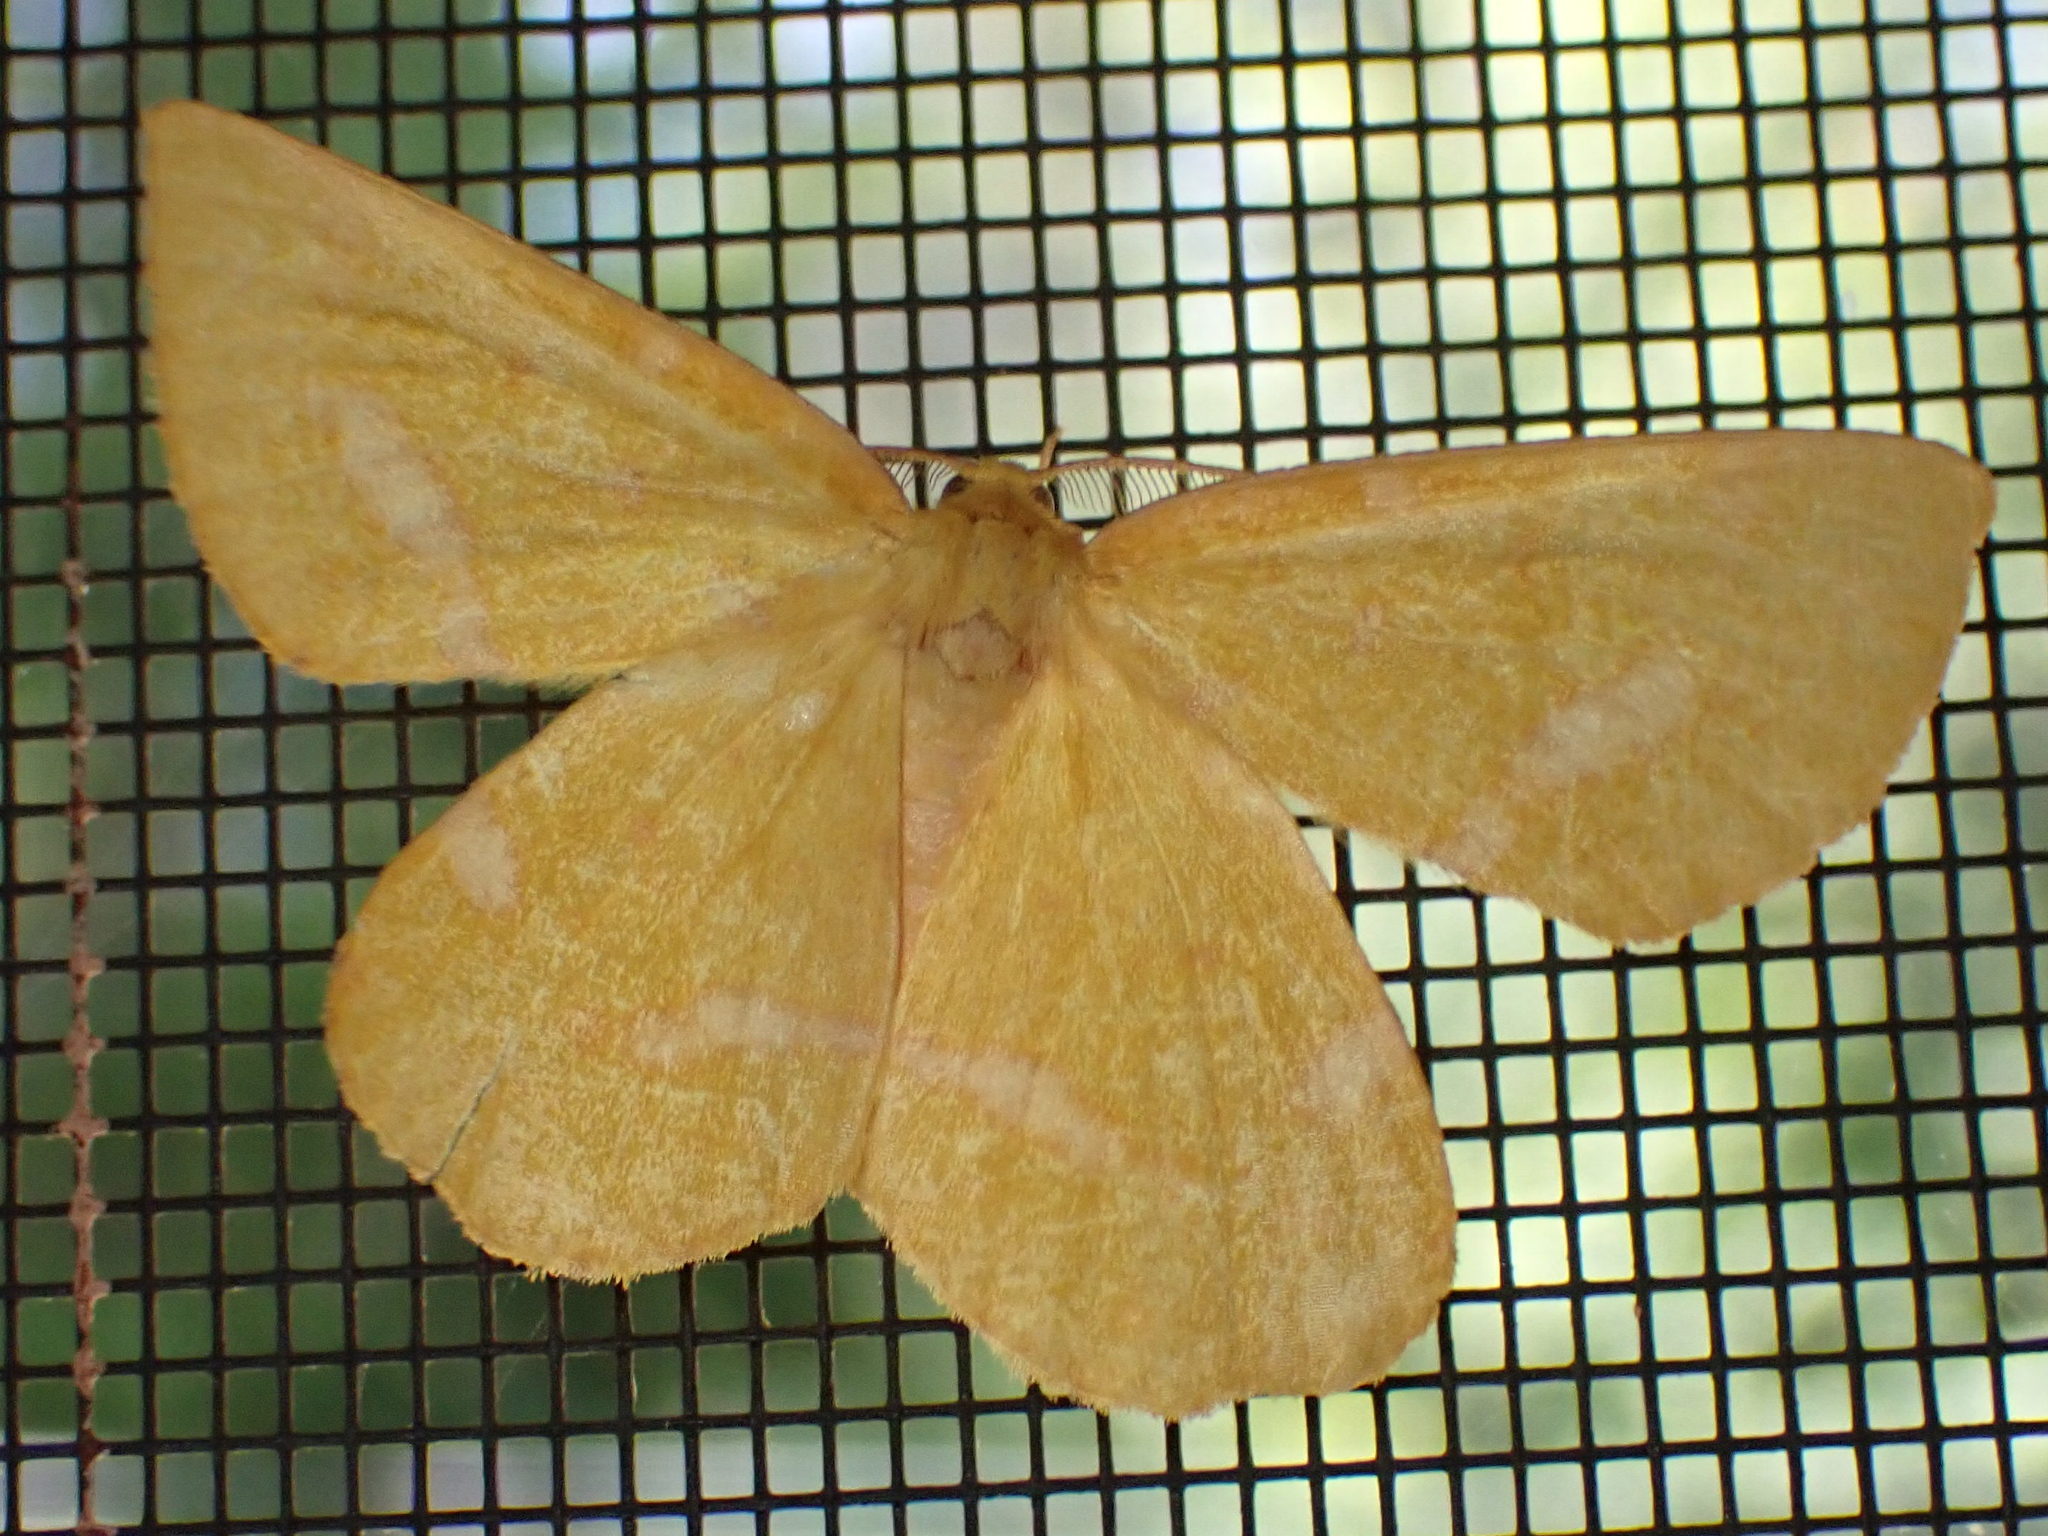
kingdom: Animalia
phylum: Arthropoda
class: Insecta
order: Lepidoptera
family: Geometridae
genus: Xanthotype
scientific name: Xanthotype
